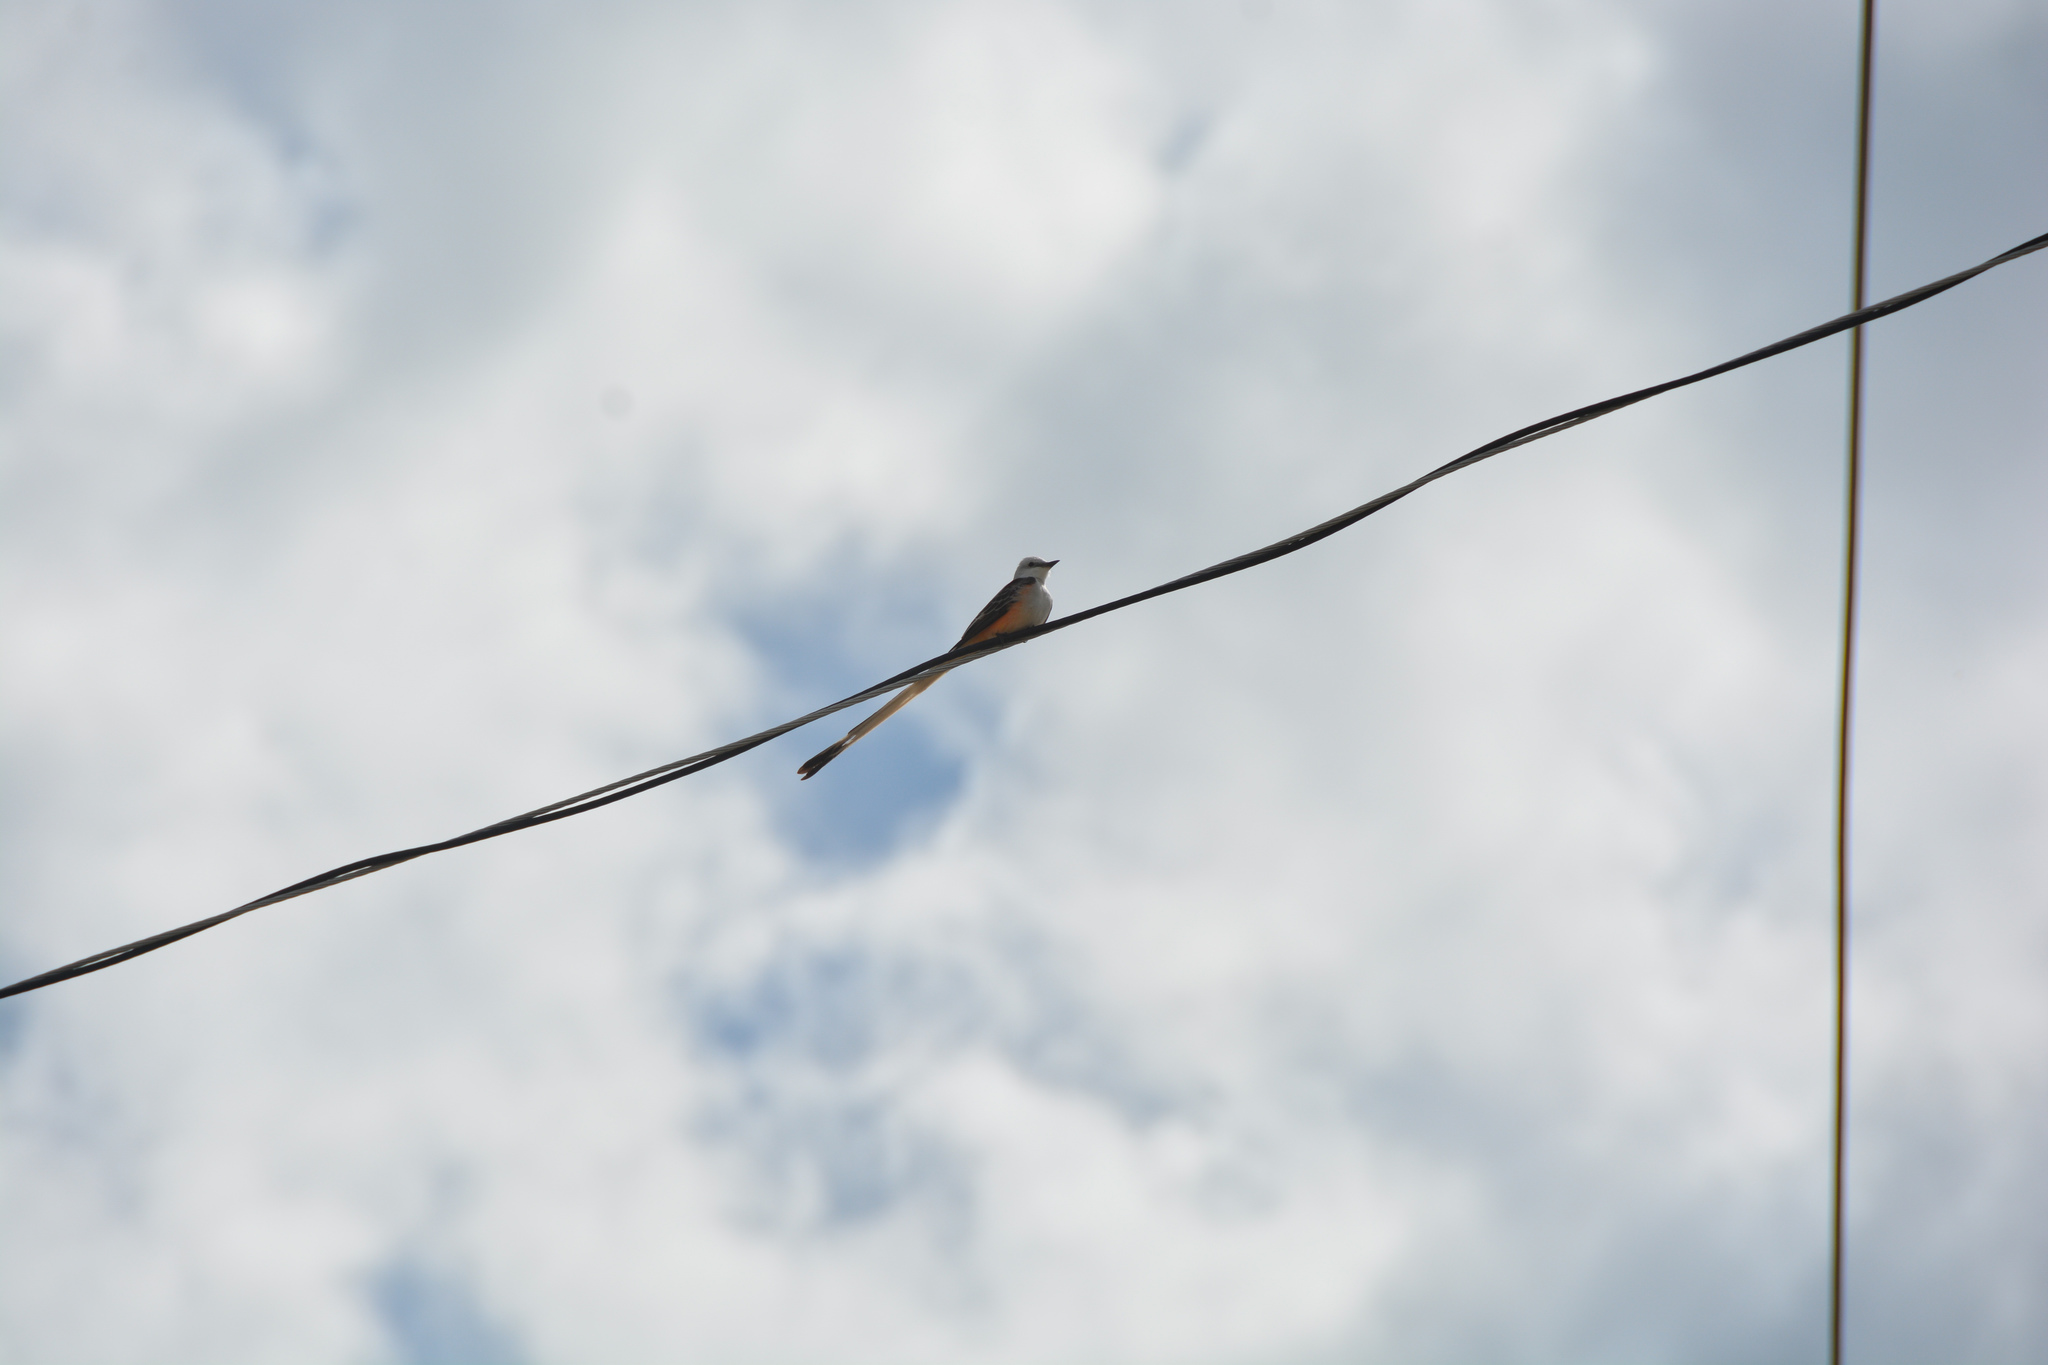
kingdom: Animalia
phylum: Chordata
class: Aves
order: Passeriformes
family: Tyrannidae
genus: Tyrannus
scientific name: Tyrannus forficatus
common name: Scissor-tailed flycatcher
